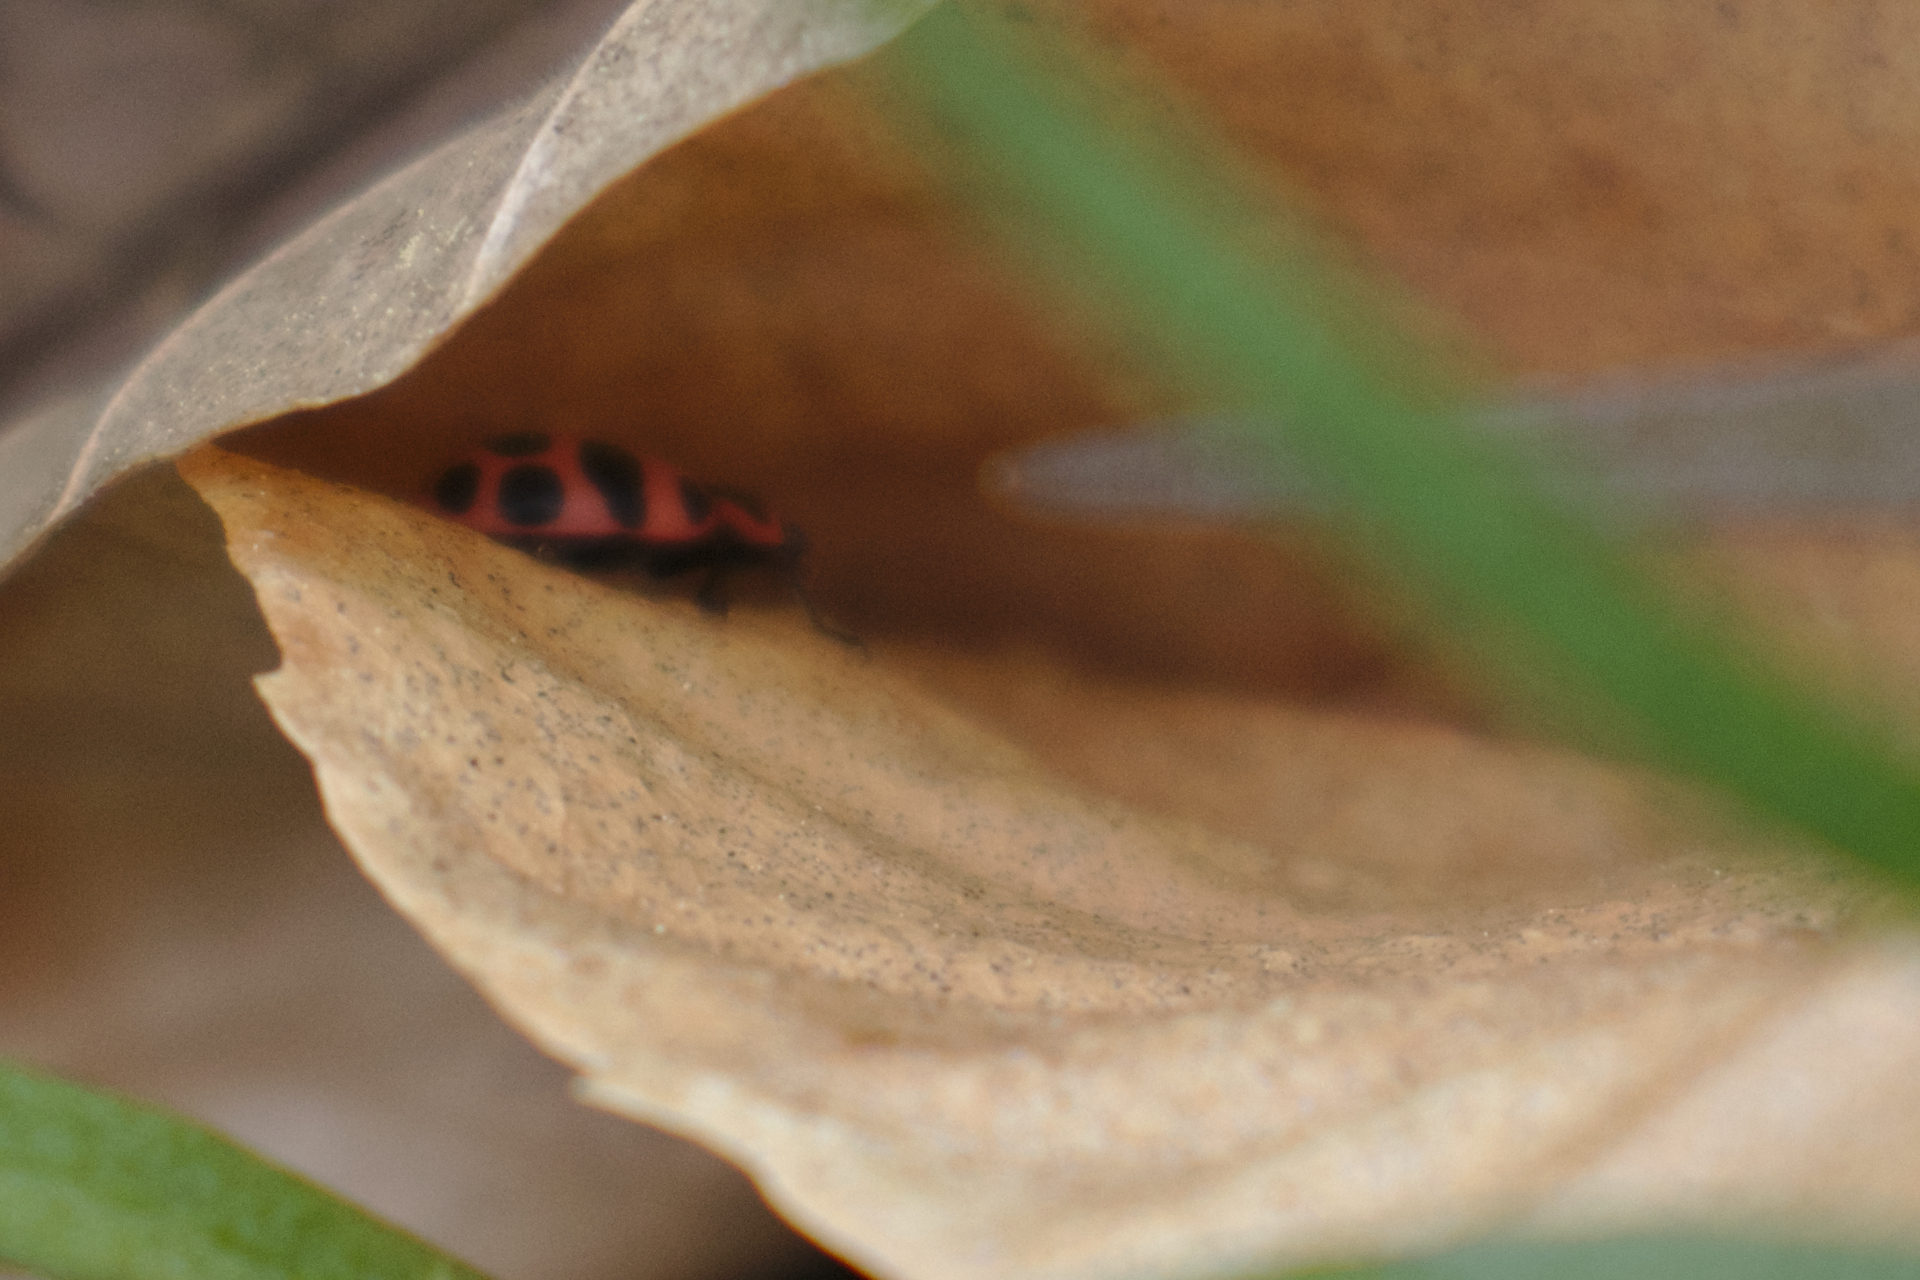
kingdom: Animalia
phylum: Arthropoda
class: Insecta
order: Coleoptera
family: Coccinellidae
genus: Coleomegilla
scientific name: Coleomegilla maculata
